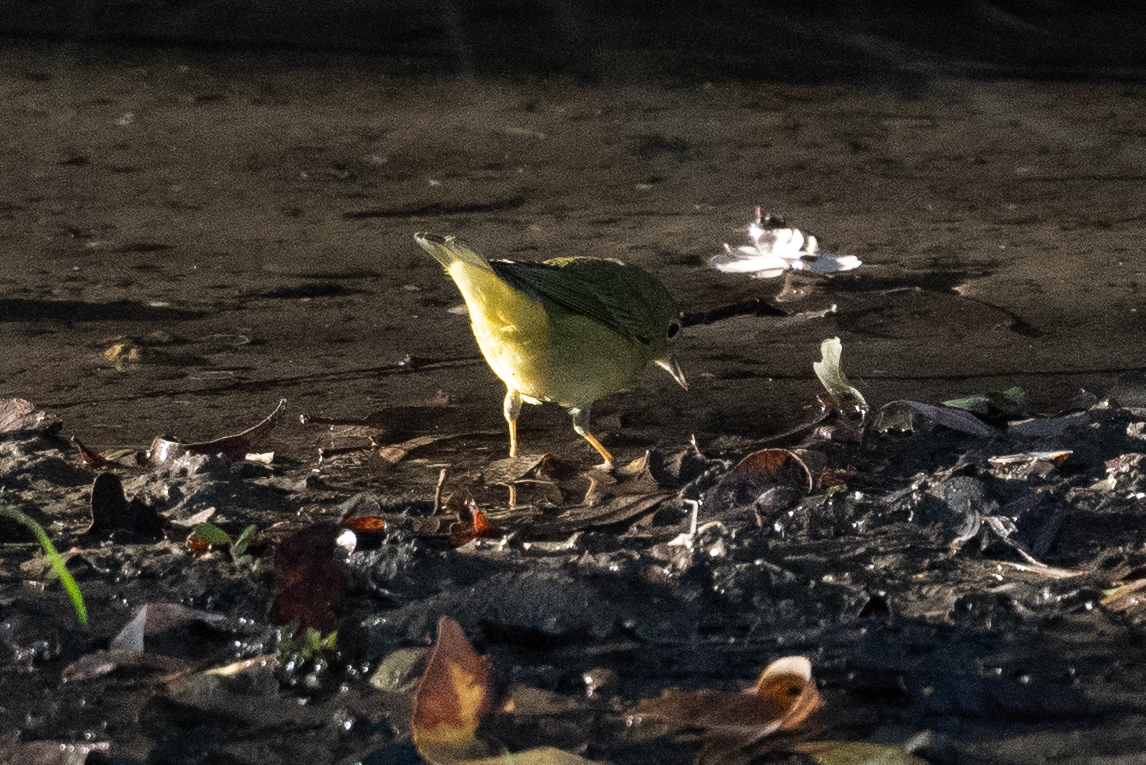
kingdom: Animalia
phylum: Chordata
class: Aves
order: Passeriformes
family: Parulidae
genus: Setophaga
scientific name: Setophaga petechia
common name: Yellow warbler
